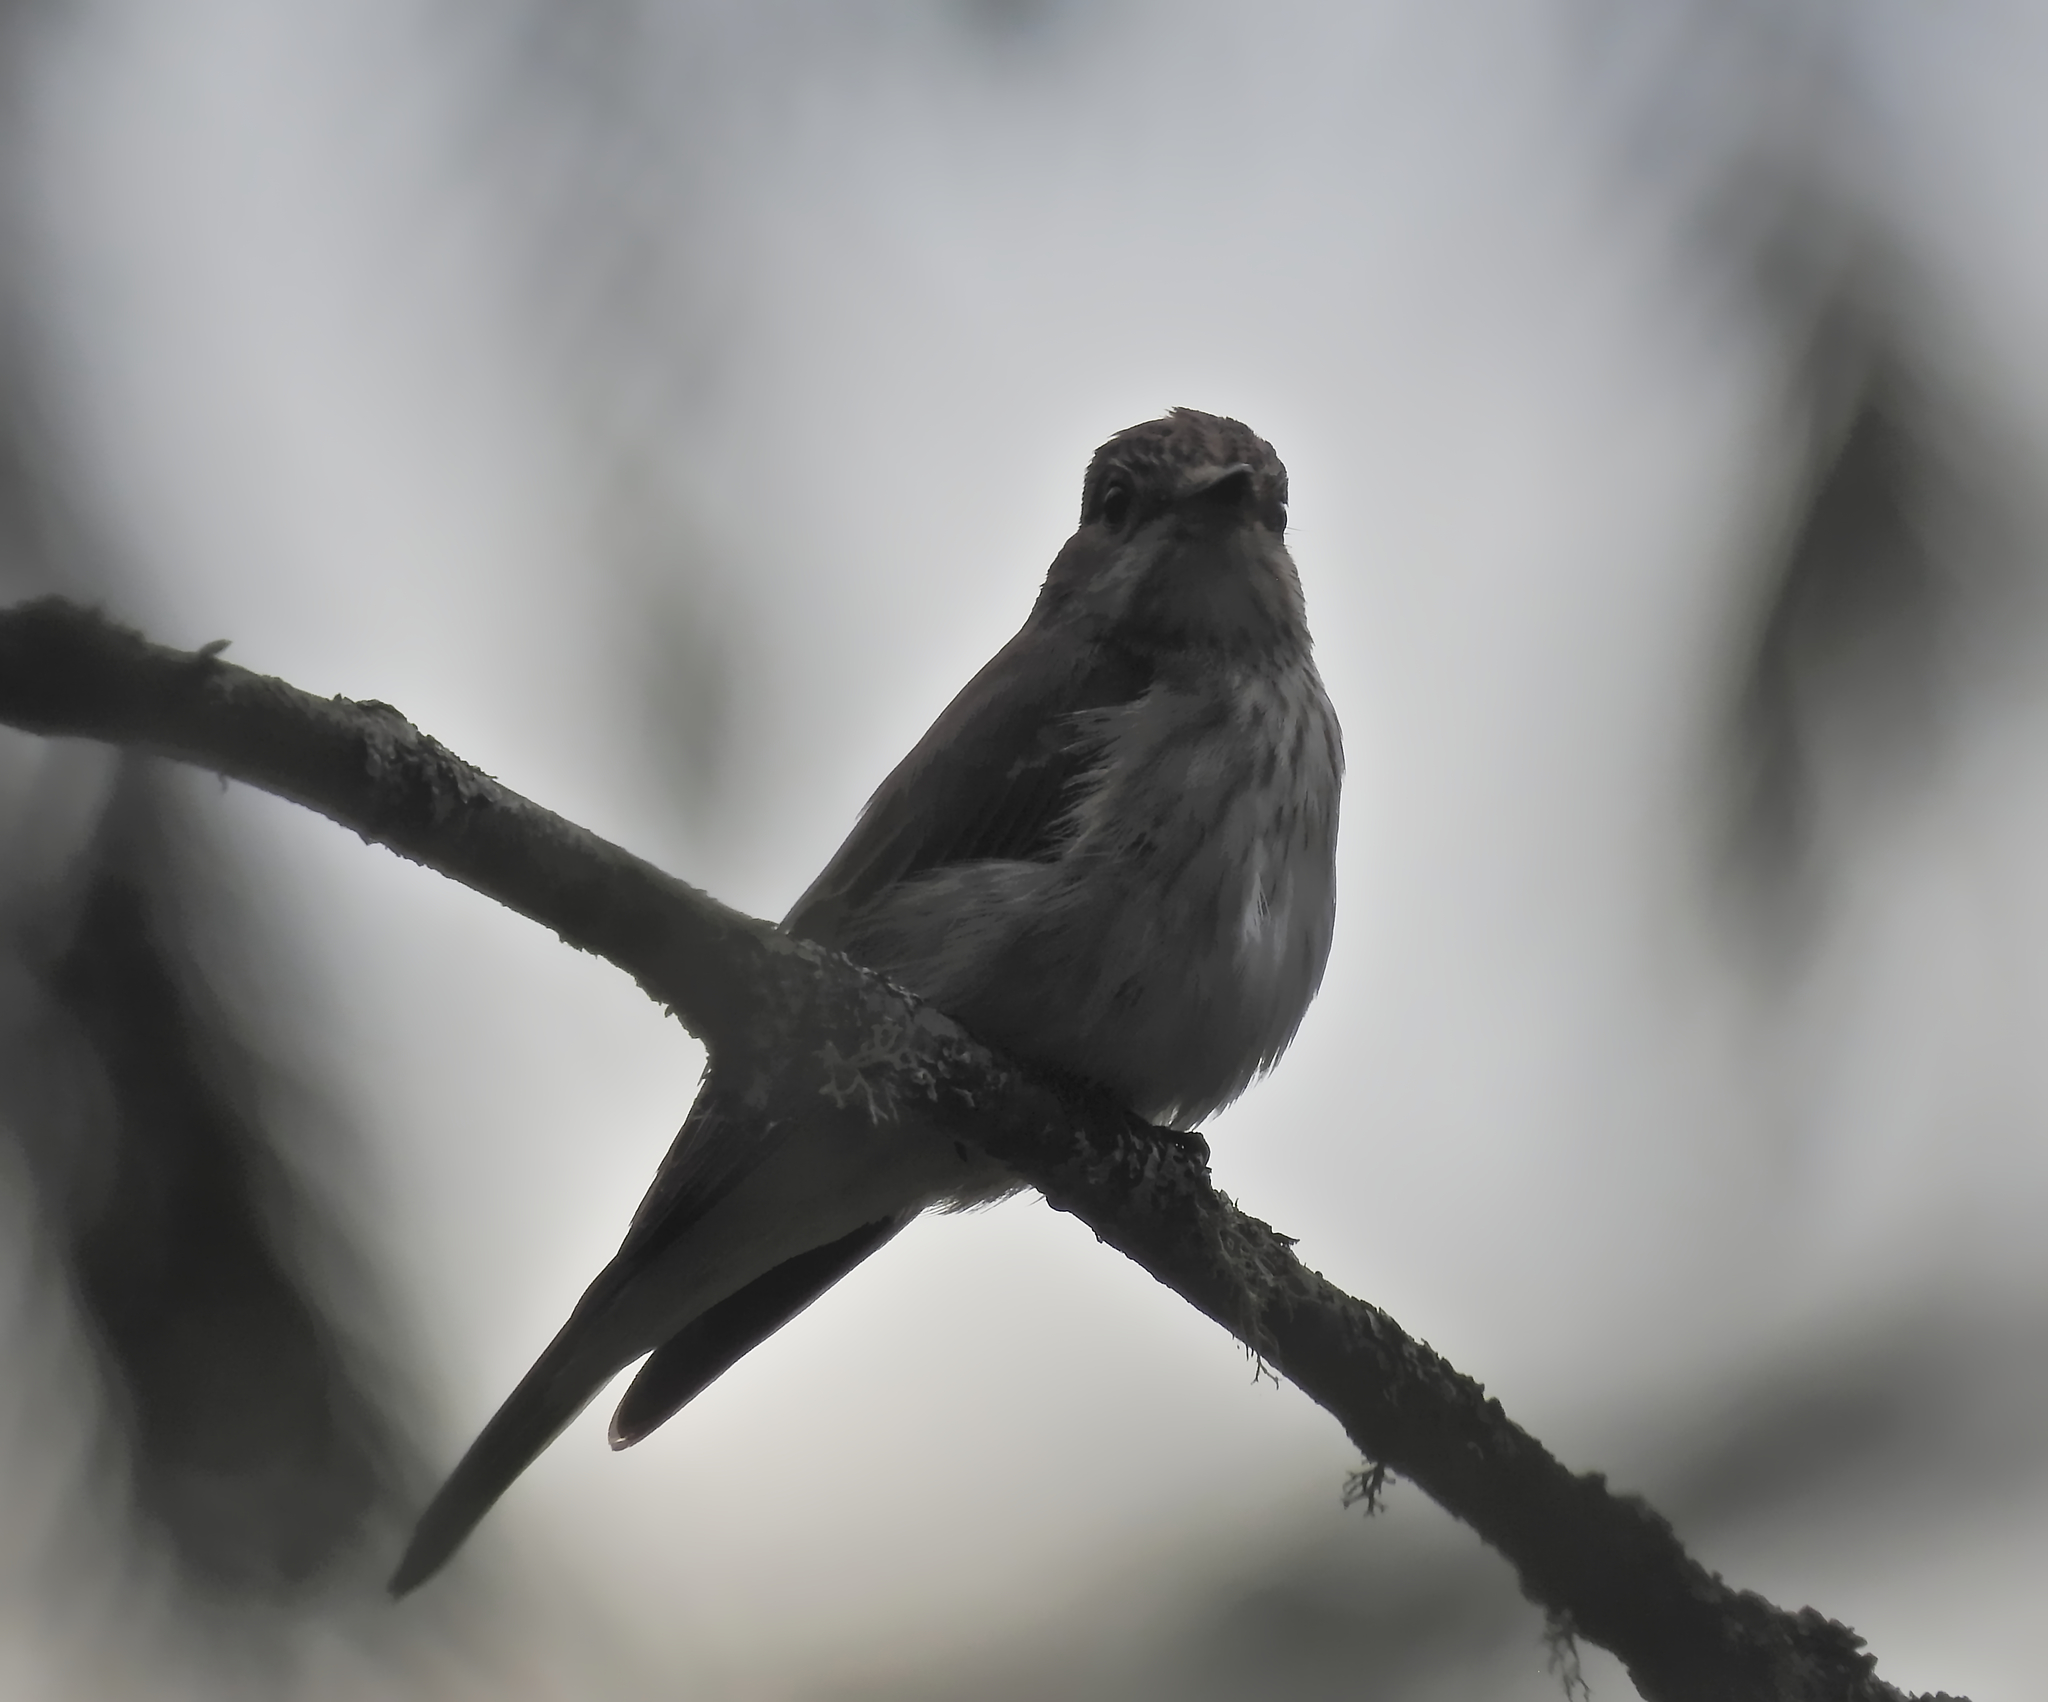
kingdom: Animalia
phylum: Chordata
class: Aves
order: Passeriformes
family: Muscicapidae
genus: Muscicapa
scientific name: Muscicapa striata
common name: Spotted flycatcher
